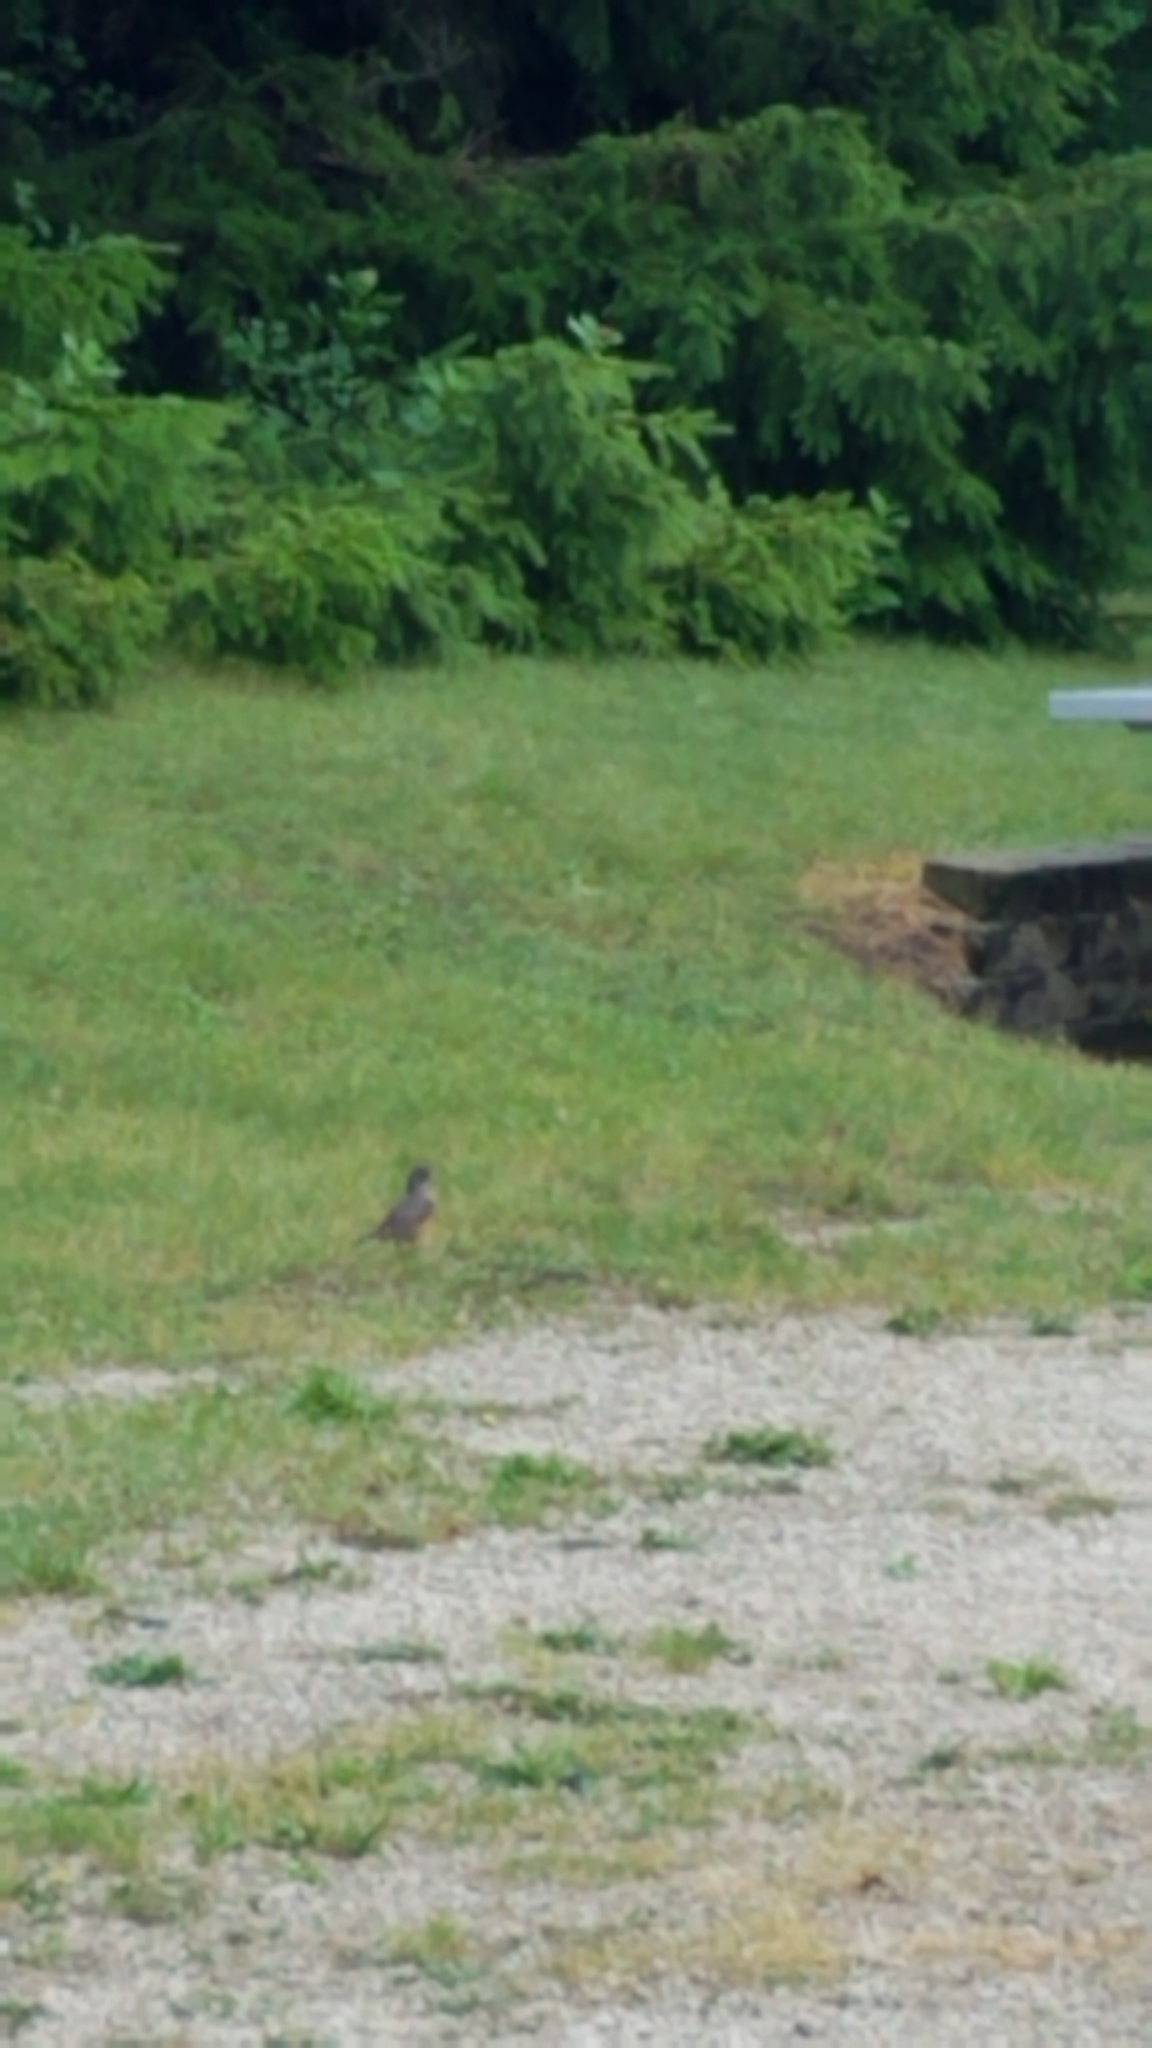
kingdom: Animalia
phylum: Chordata
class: Aves
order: Passeriformes
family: Turdidae
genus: Turdus
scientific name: Turdus migratorius
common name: American robin
